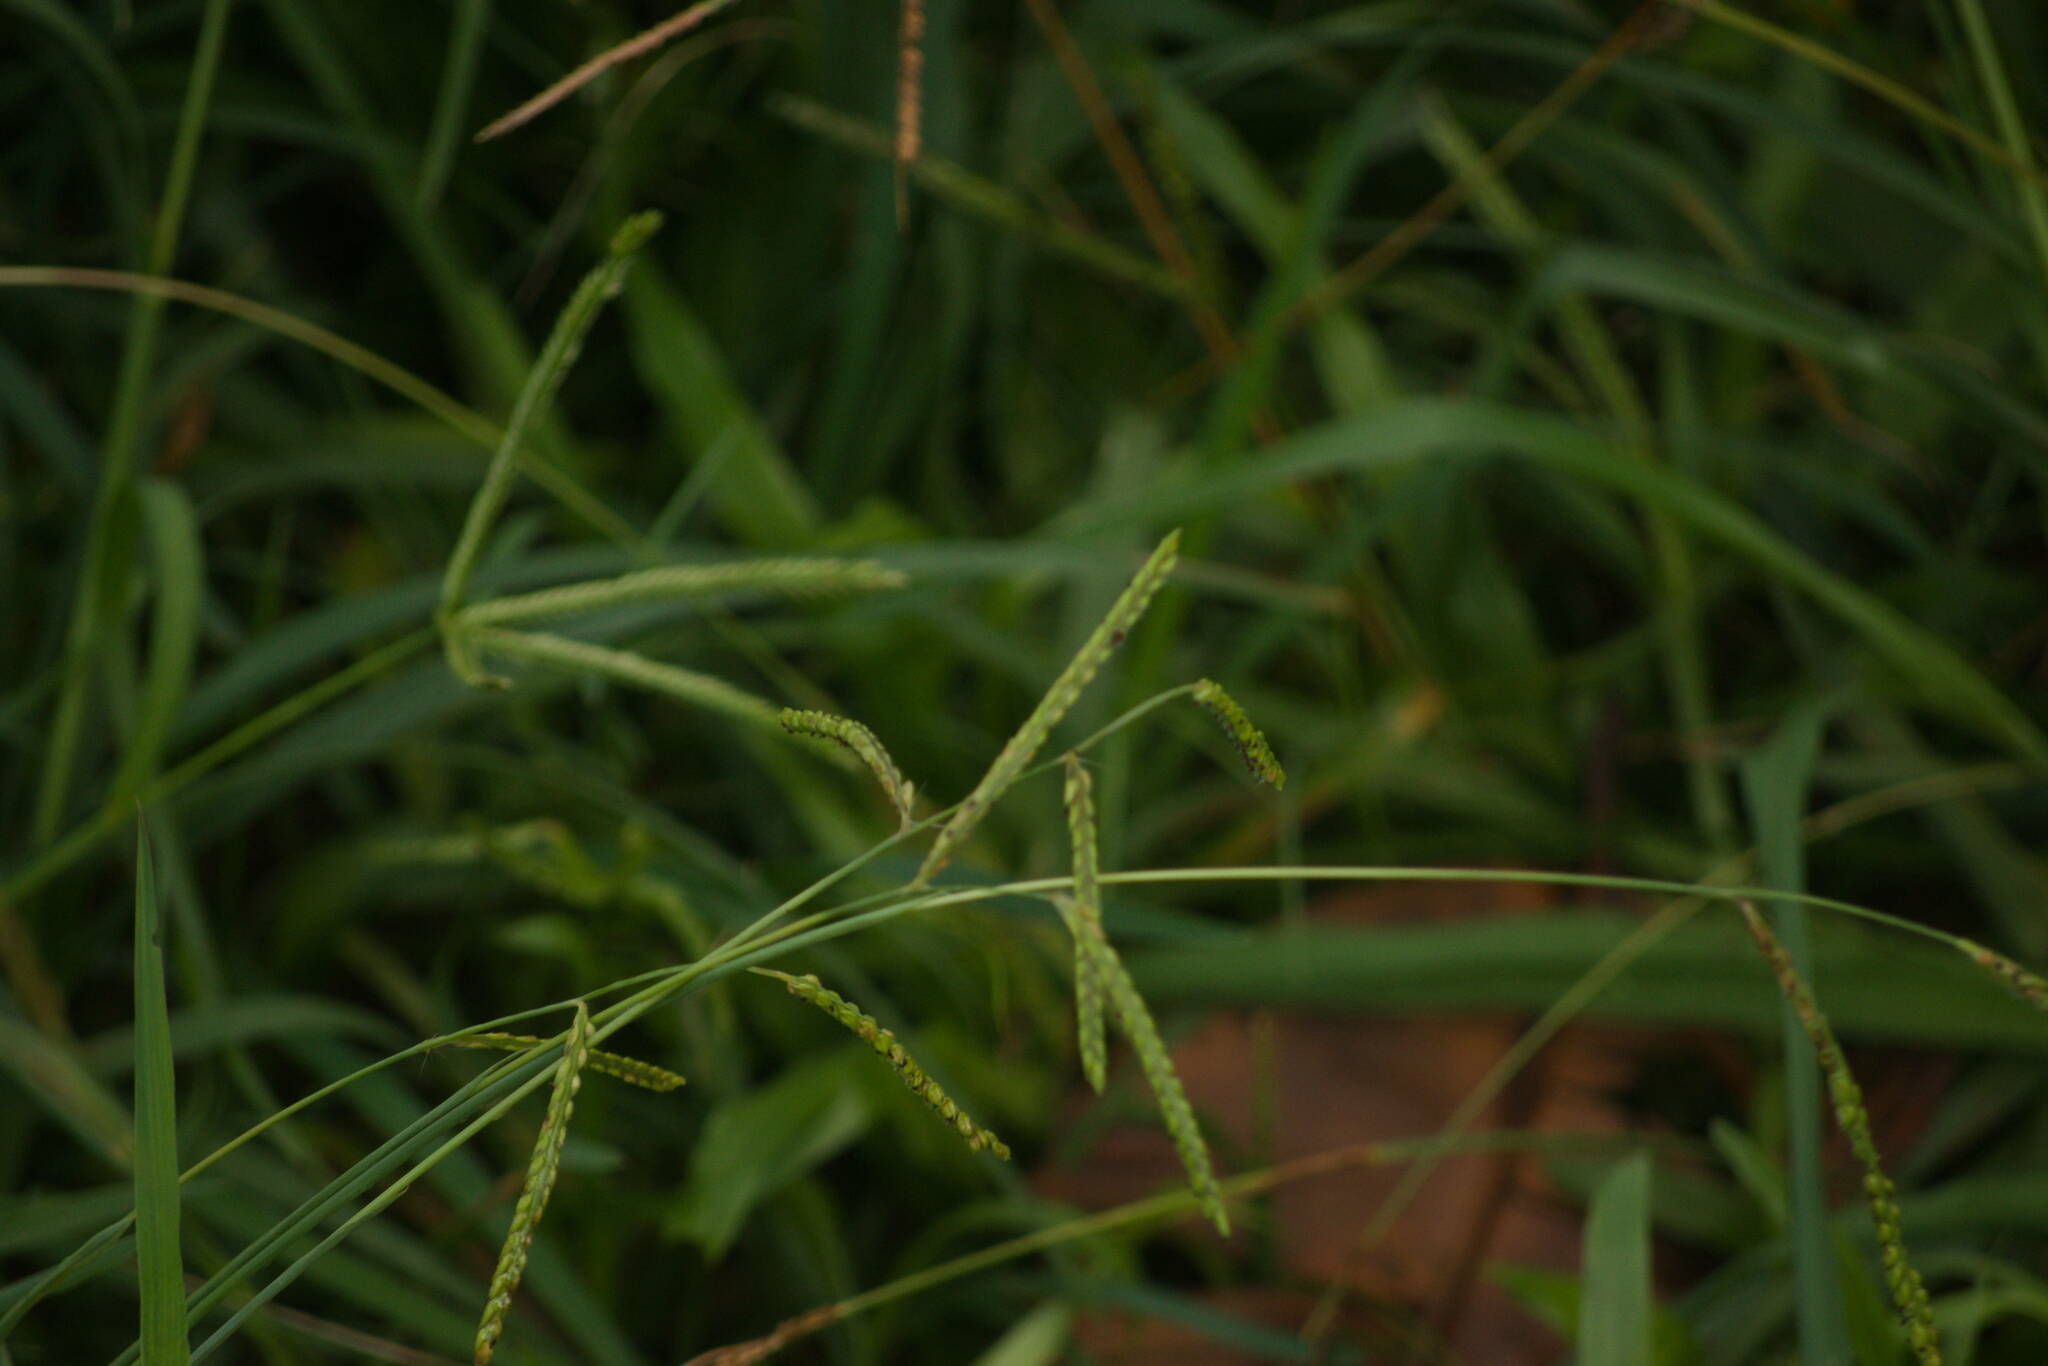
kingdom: Plantae
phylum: Tracheophyta
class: Liliopsida
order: Poales
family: Poaceae
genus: Paspalum
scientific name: Paspalum dilatatum
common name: Dallisgrass
